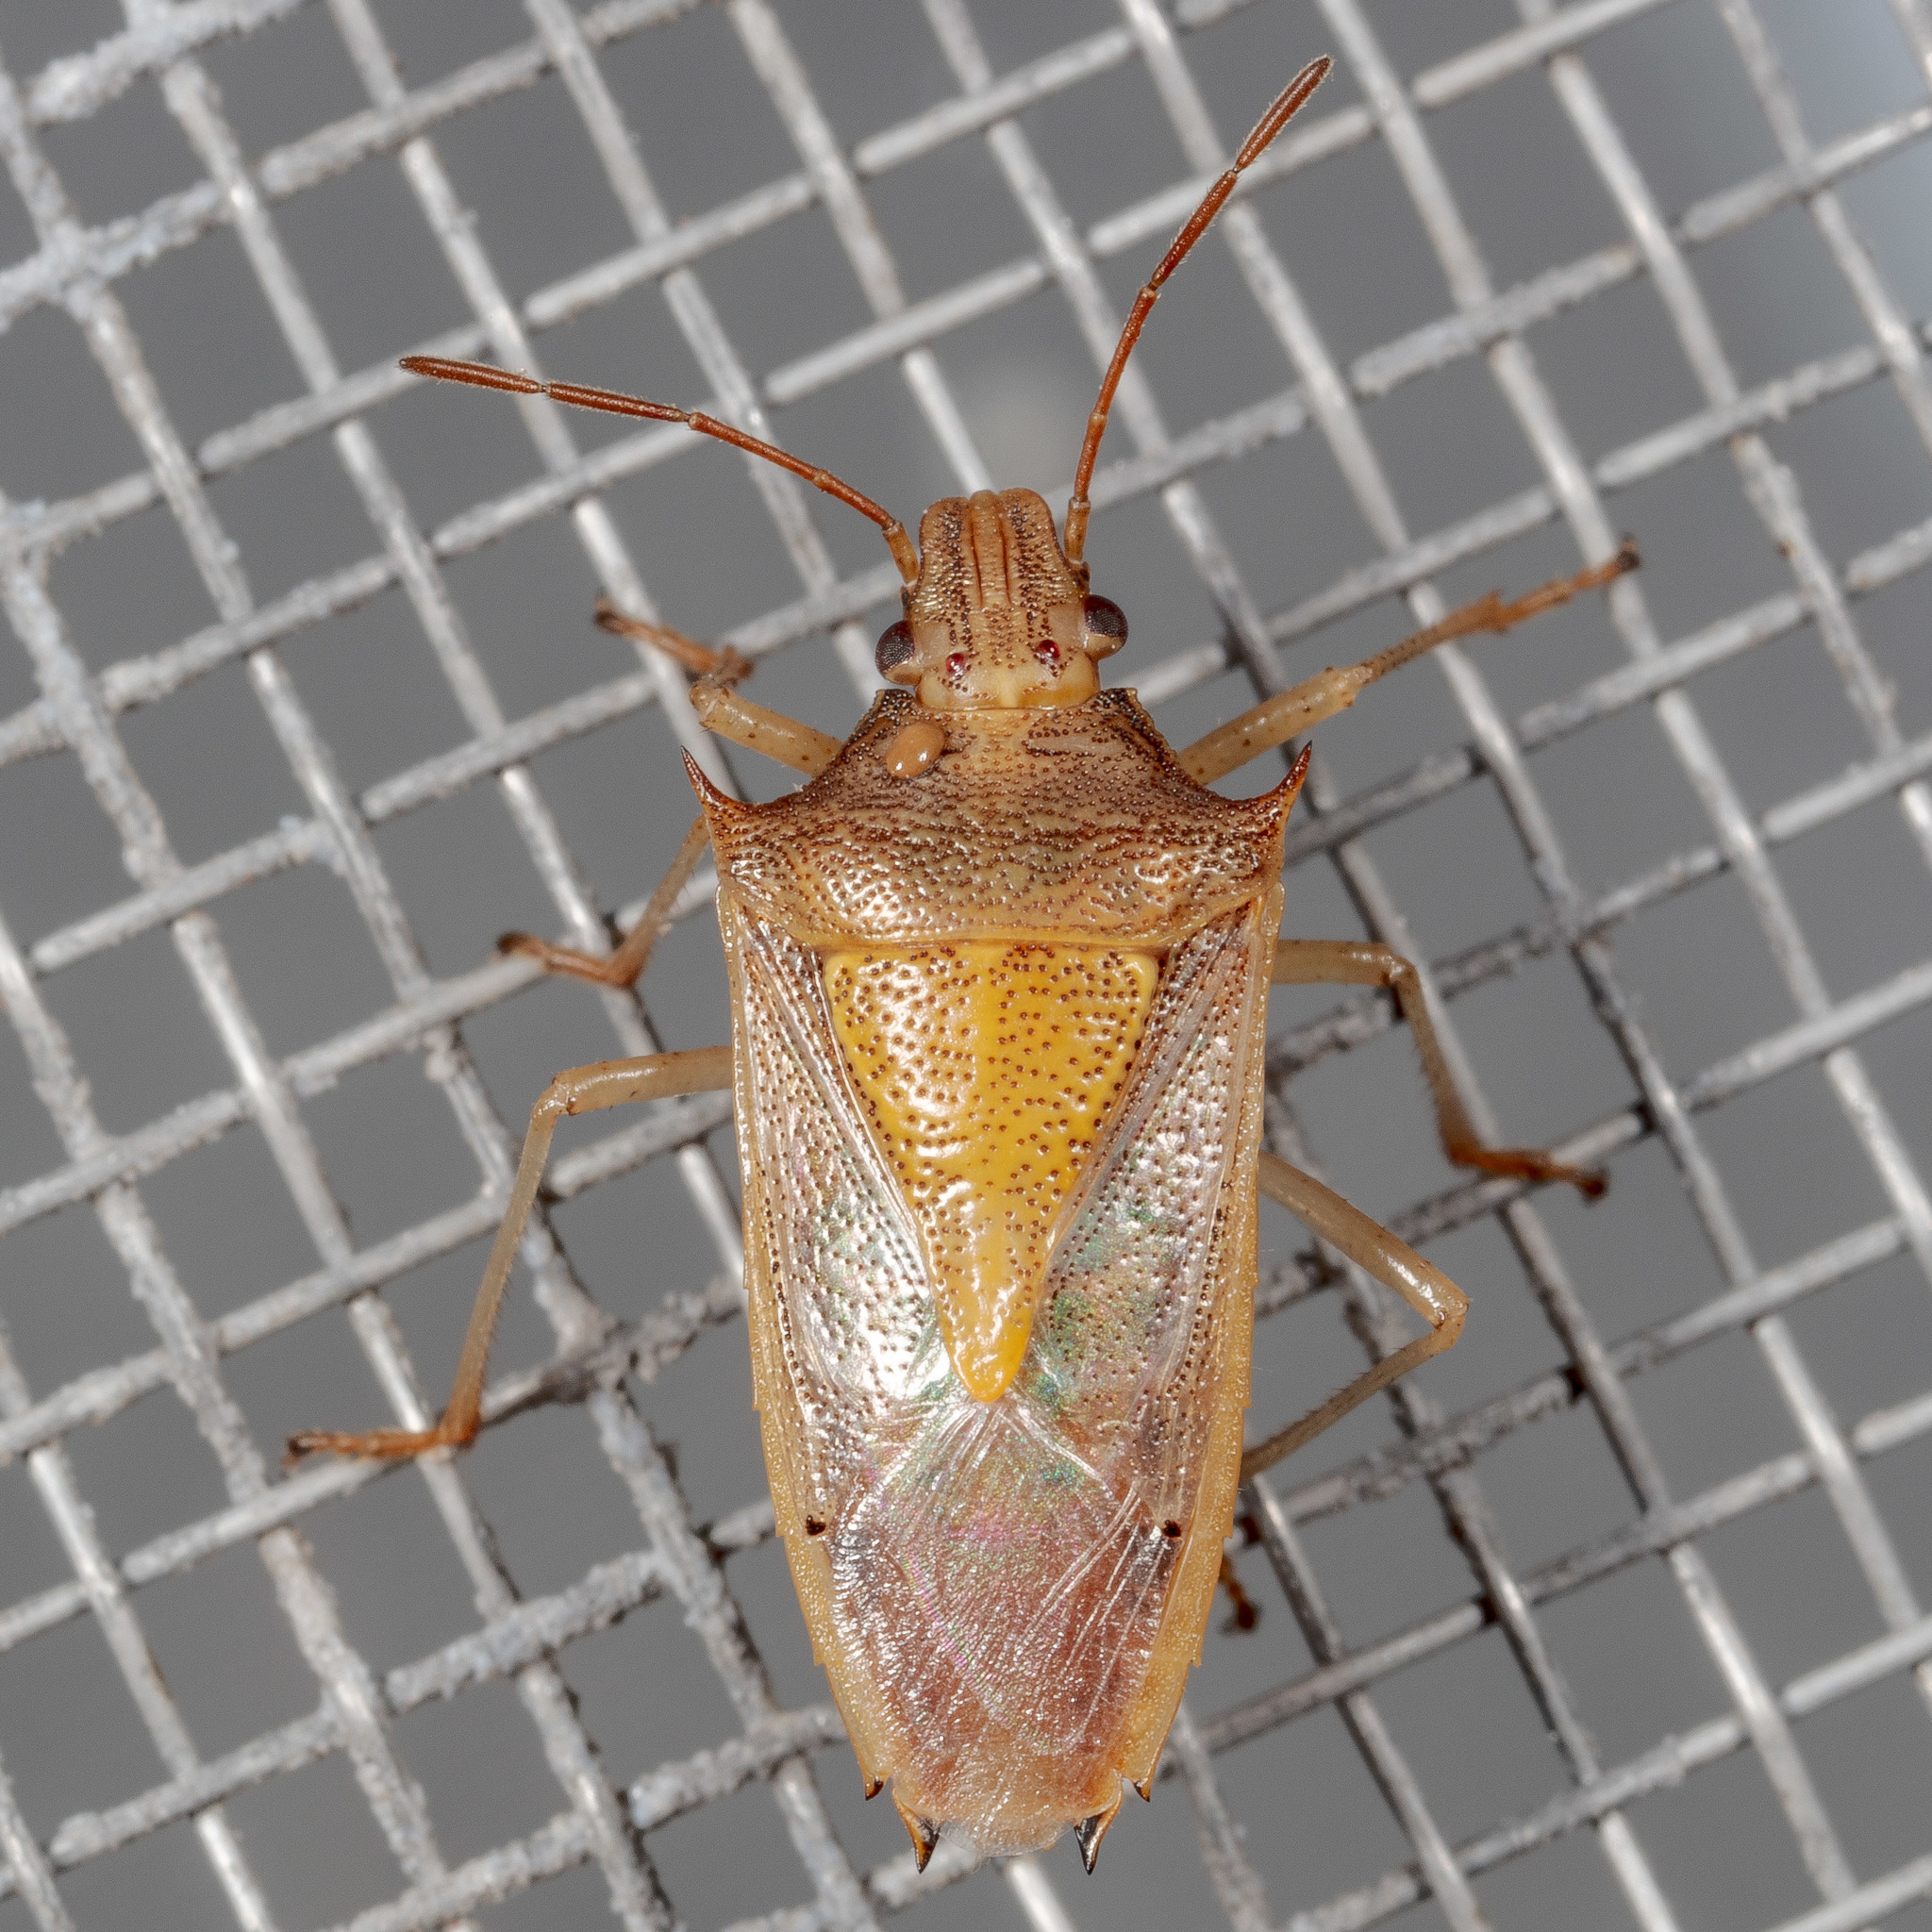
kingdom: Animalia
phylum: Arthropoda
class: Insecta
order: Hemiptera
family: Pentatomidae
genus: Oebalus
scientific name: Oebalus pugnax
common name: Rice stink bug
